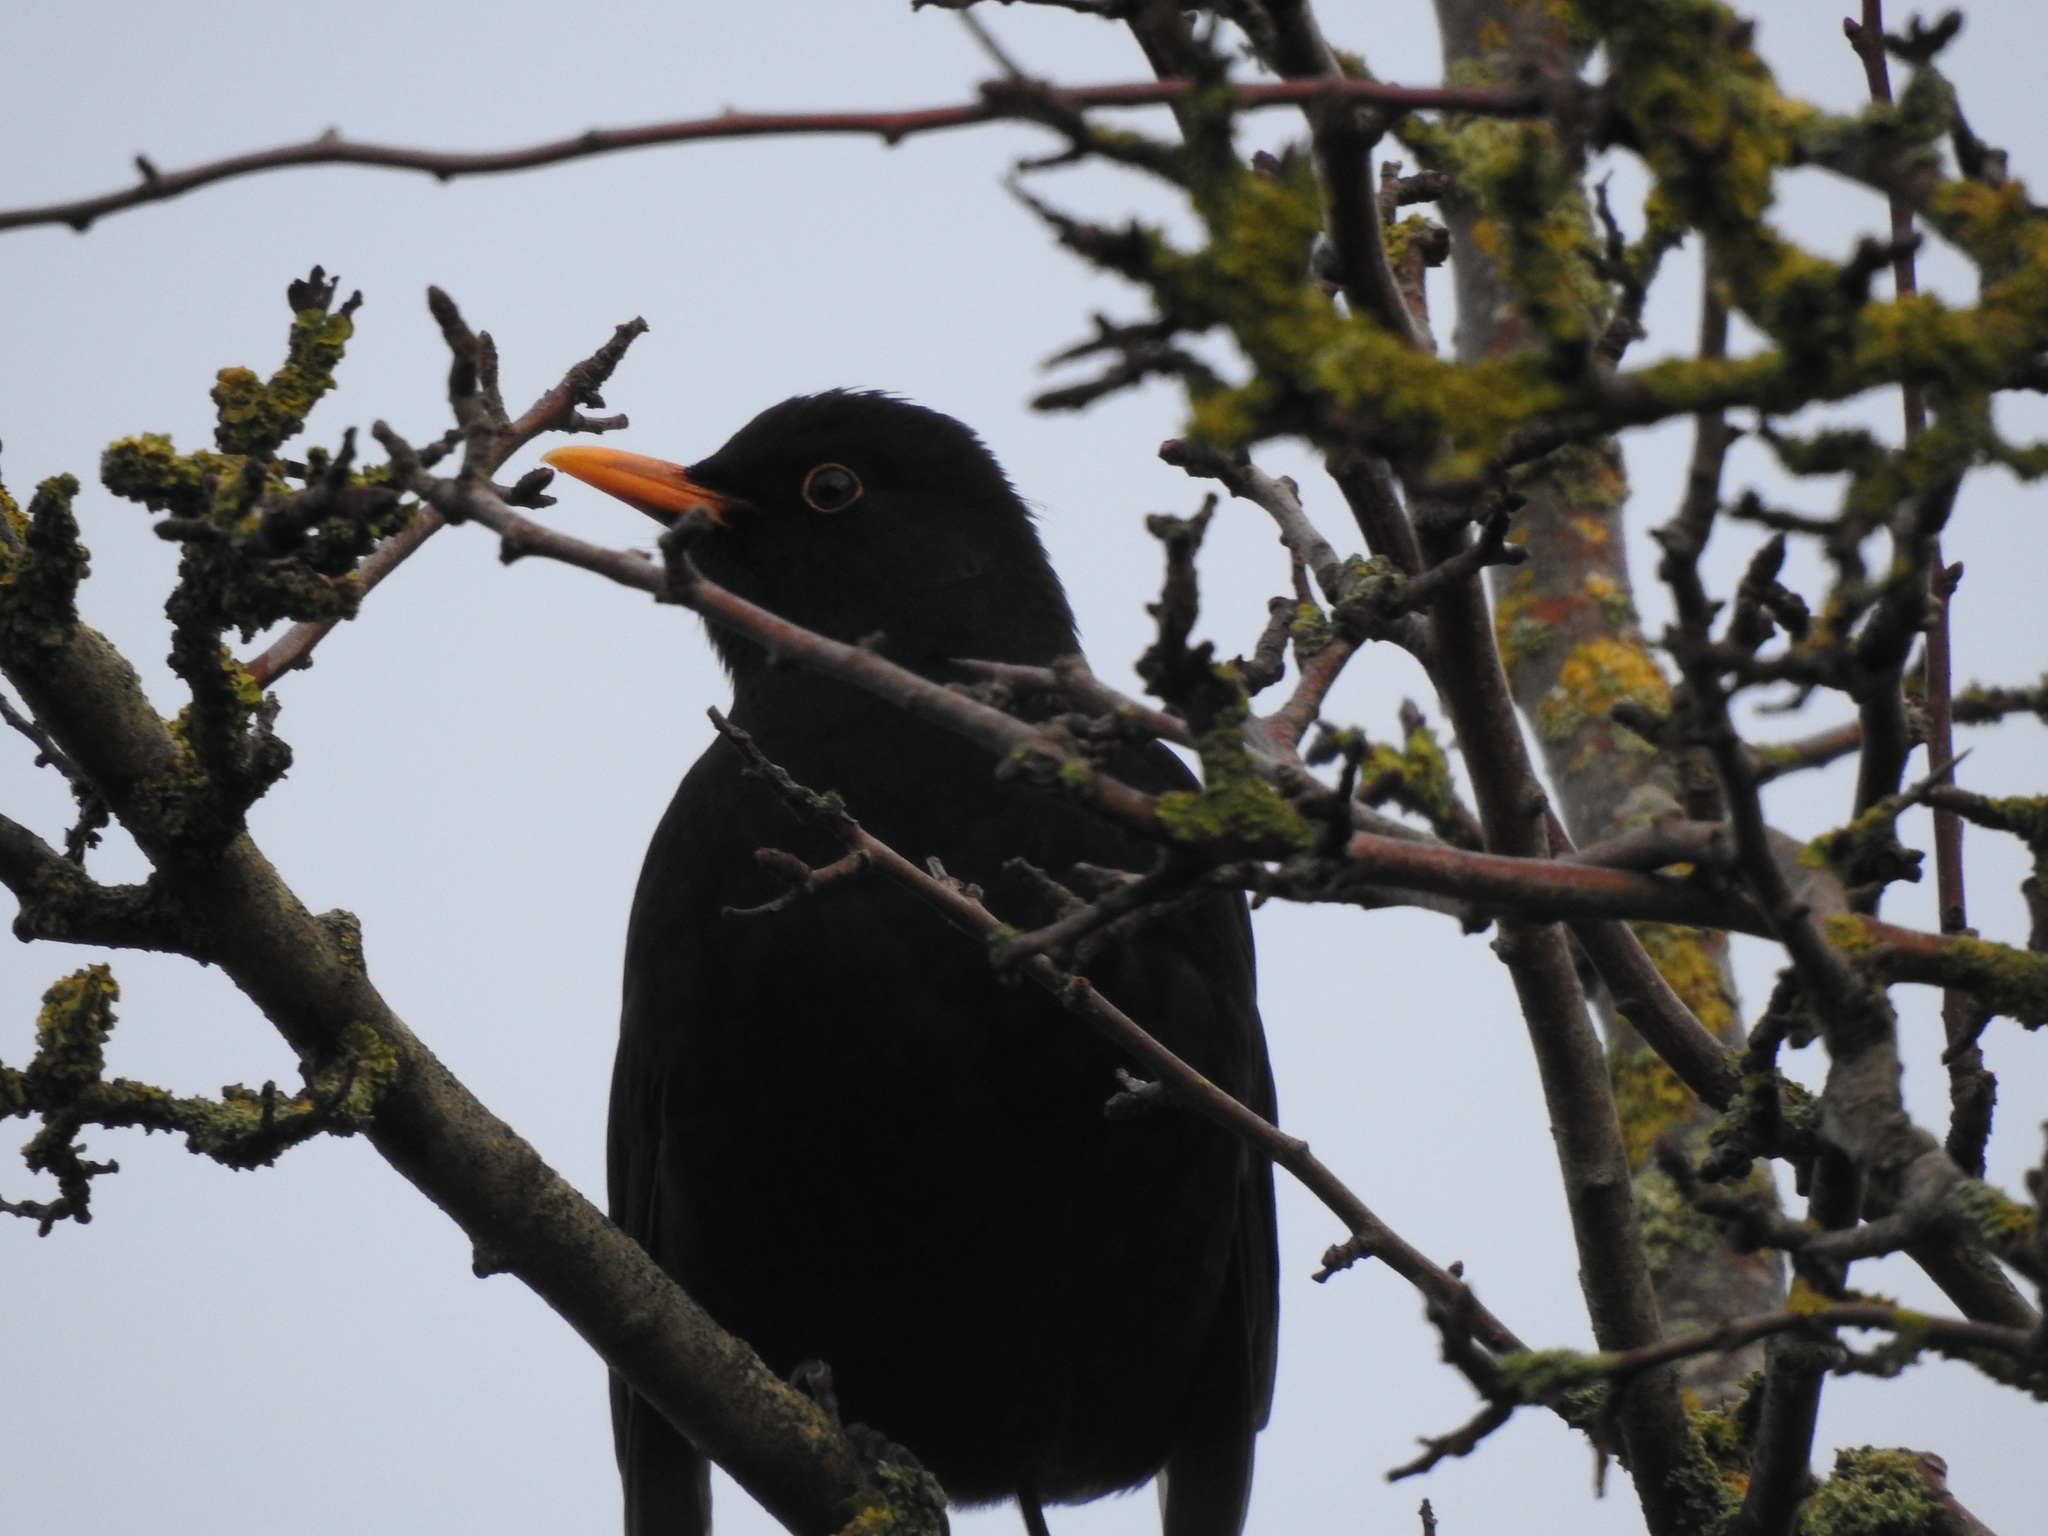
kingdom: Animalia
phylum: Chordata
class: Aves
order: Passeriformes
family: Turdidae
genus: Turdus
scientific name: Turdus merula
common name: Common blackbird
